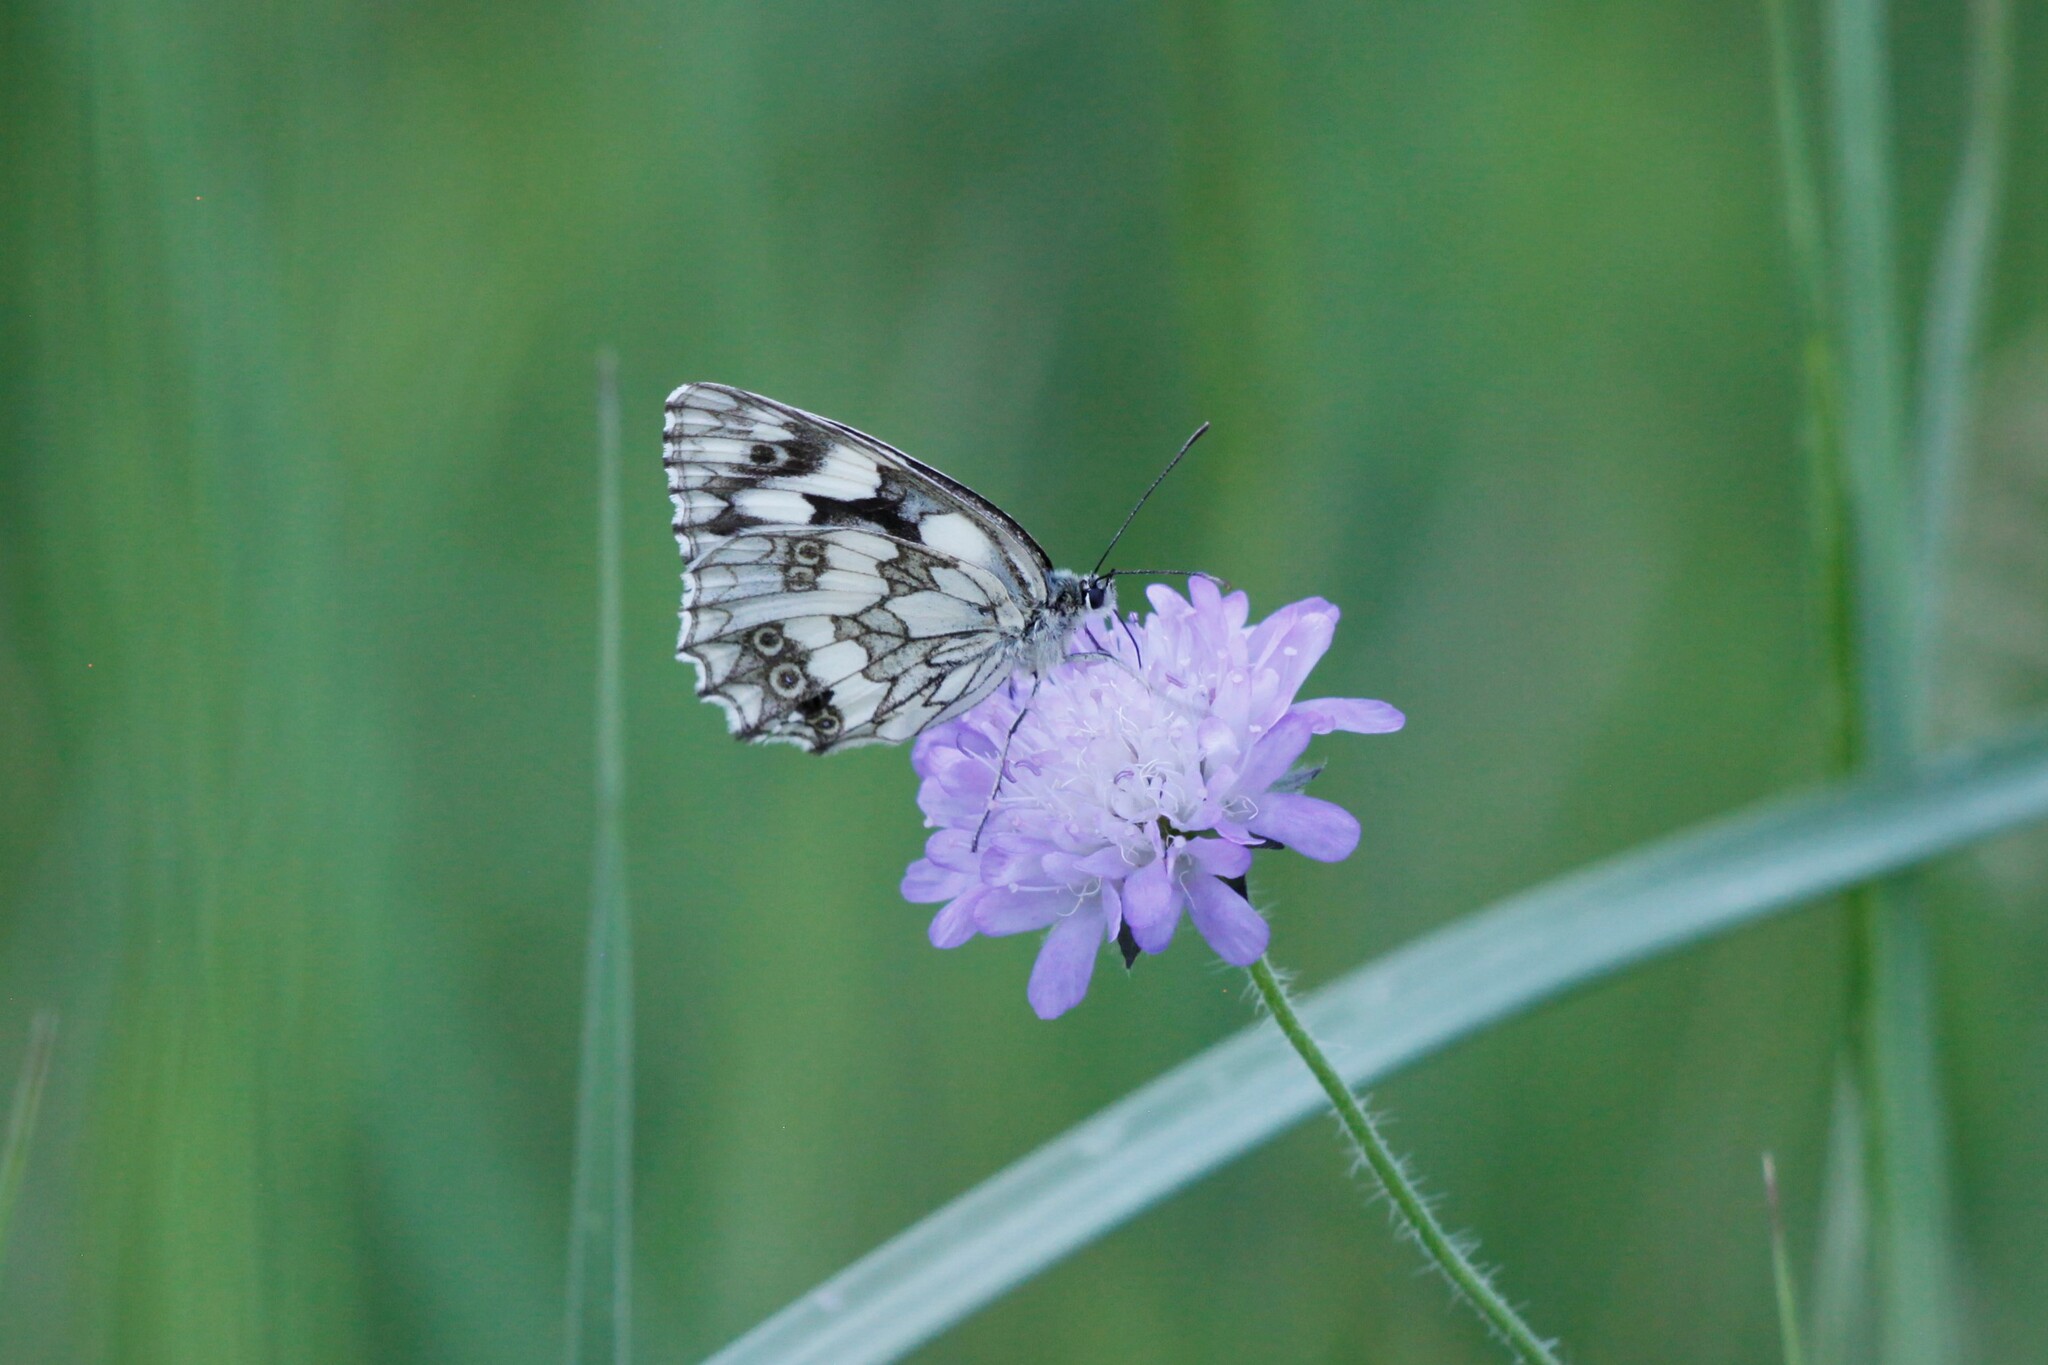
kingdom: Animalia
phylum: Arthropoda
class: Insecta
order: Lepidoptera
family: Nymphalidae
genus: Melanargia
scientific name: Melanargia galathea
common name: Marbled white
